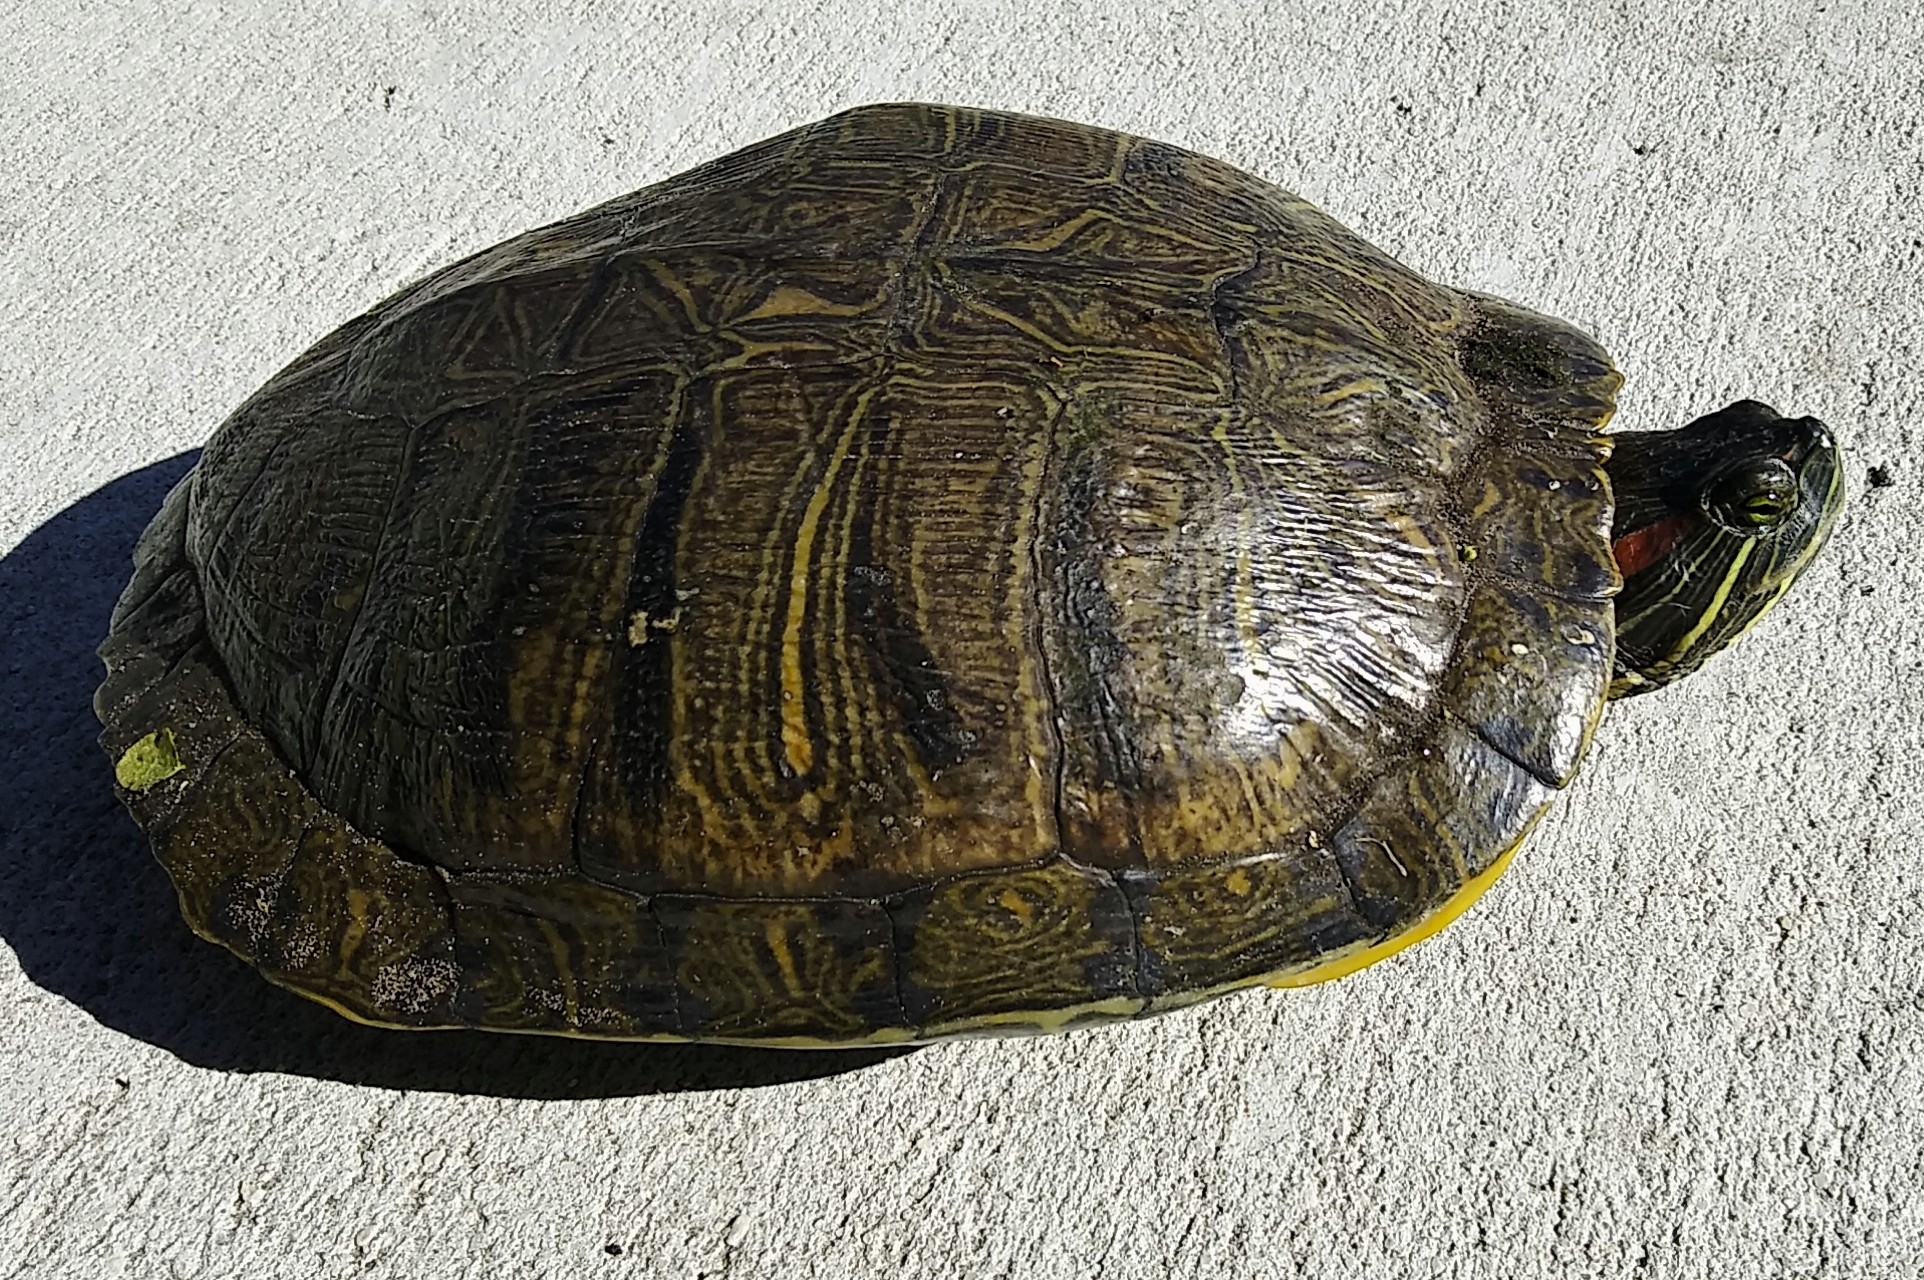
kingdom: Animalia
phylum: Chordata
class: Testudines
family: Emydidae
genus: Trachemys
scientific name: Trachemys scripta
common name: Slider
